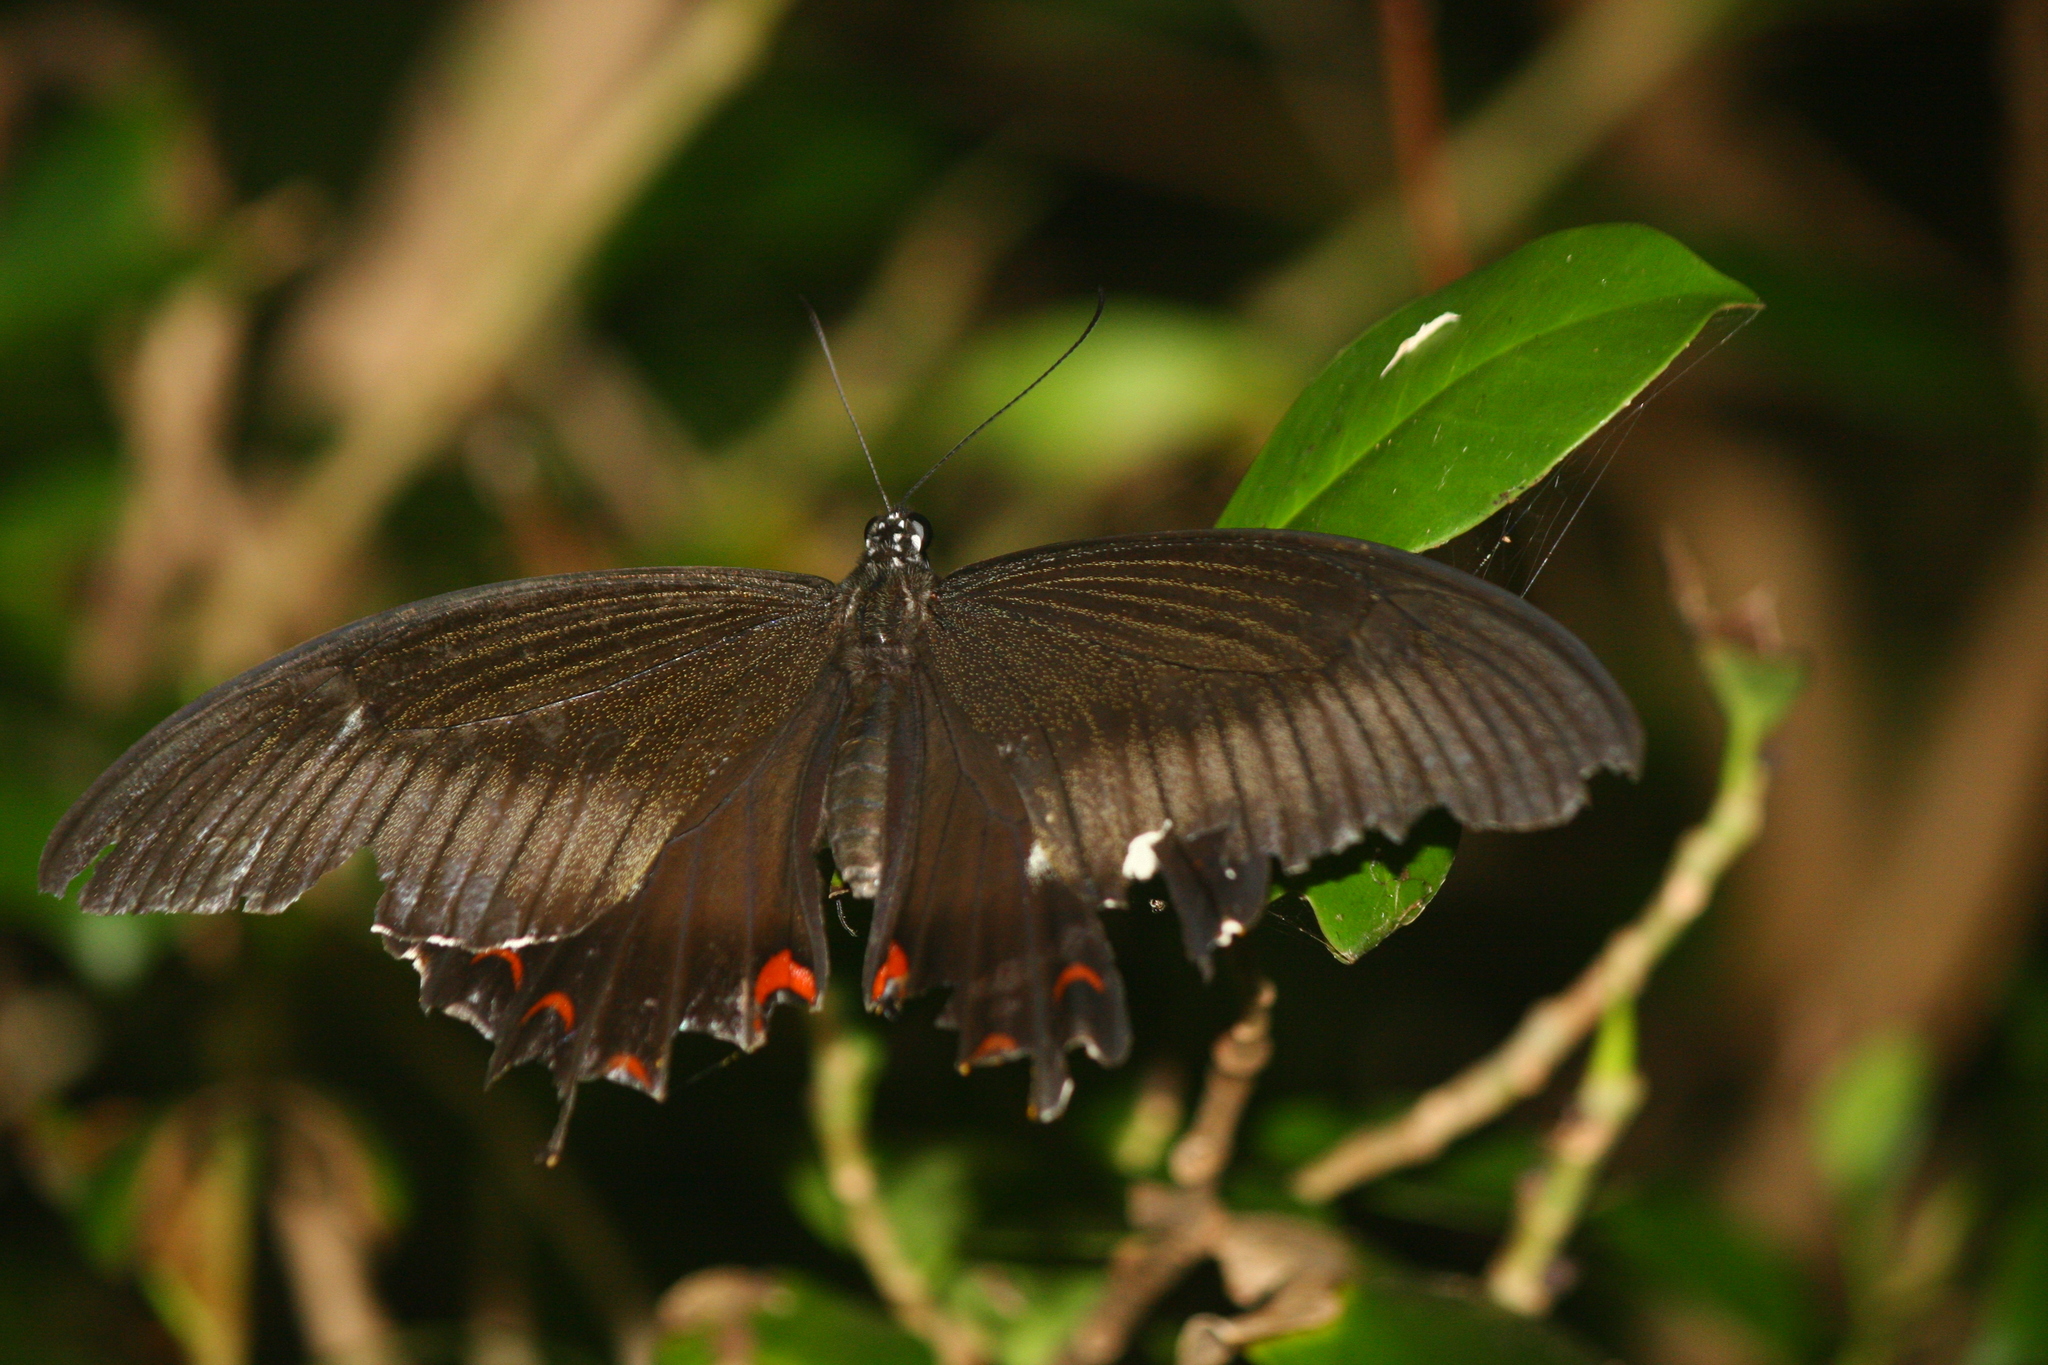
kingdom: Animalia
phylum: Arthropoda
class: Insecta
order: Lepidoptera
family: Papilionidae
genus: Papilio
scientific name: Papilio helenus
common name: Red helen
